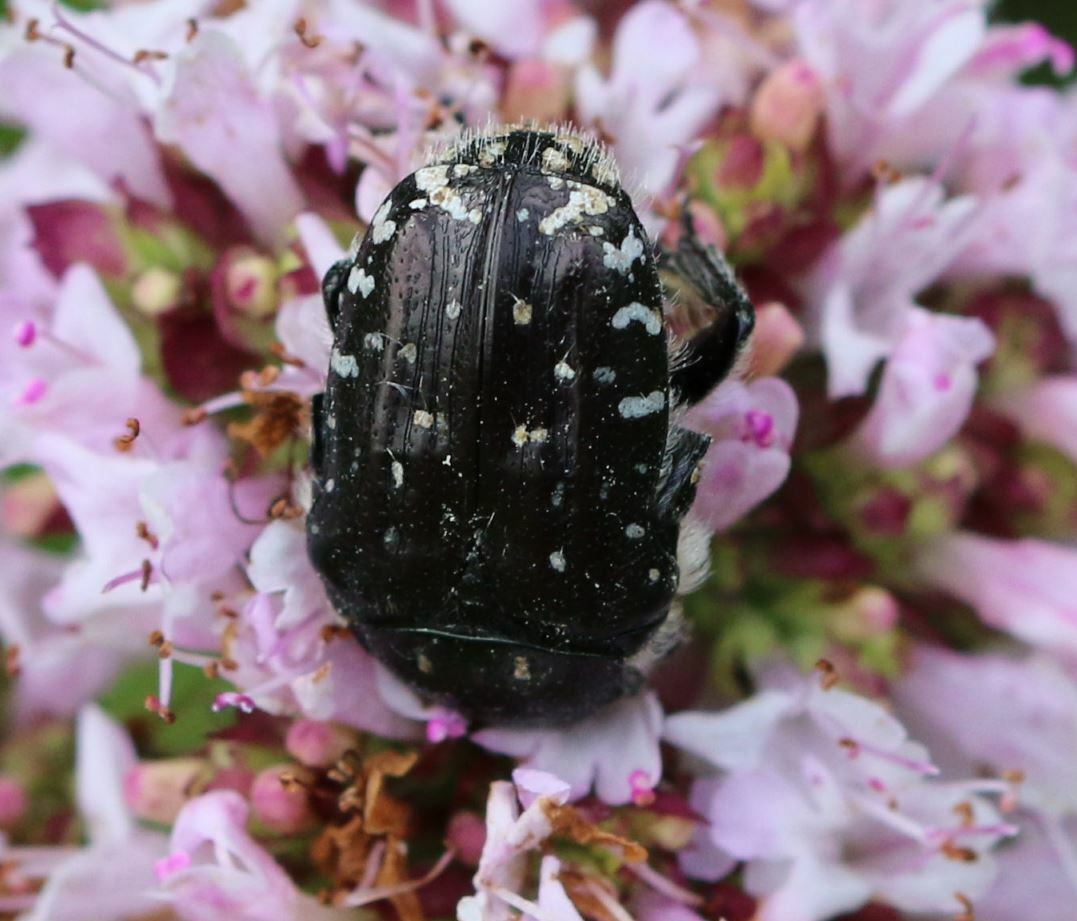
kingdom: Animalia
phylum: Arthropoda
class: Insecta
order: Coleoptera
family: Scarabaeidae
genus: Oxythyrea
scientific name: Oxythyrea funesta
